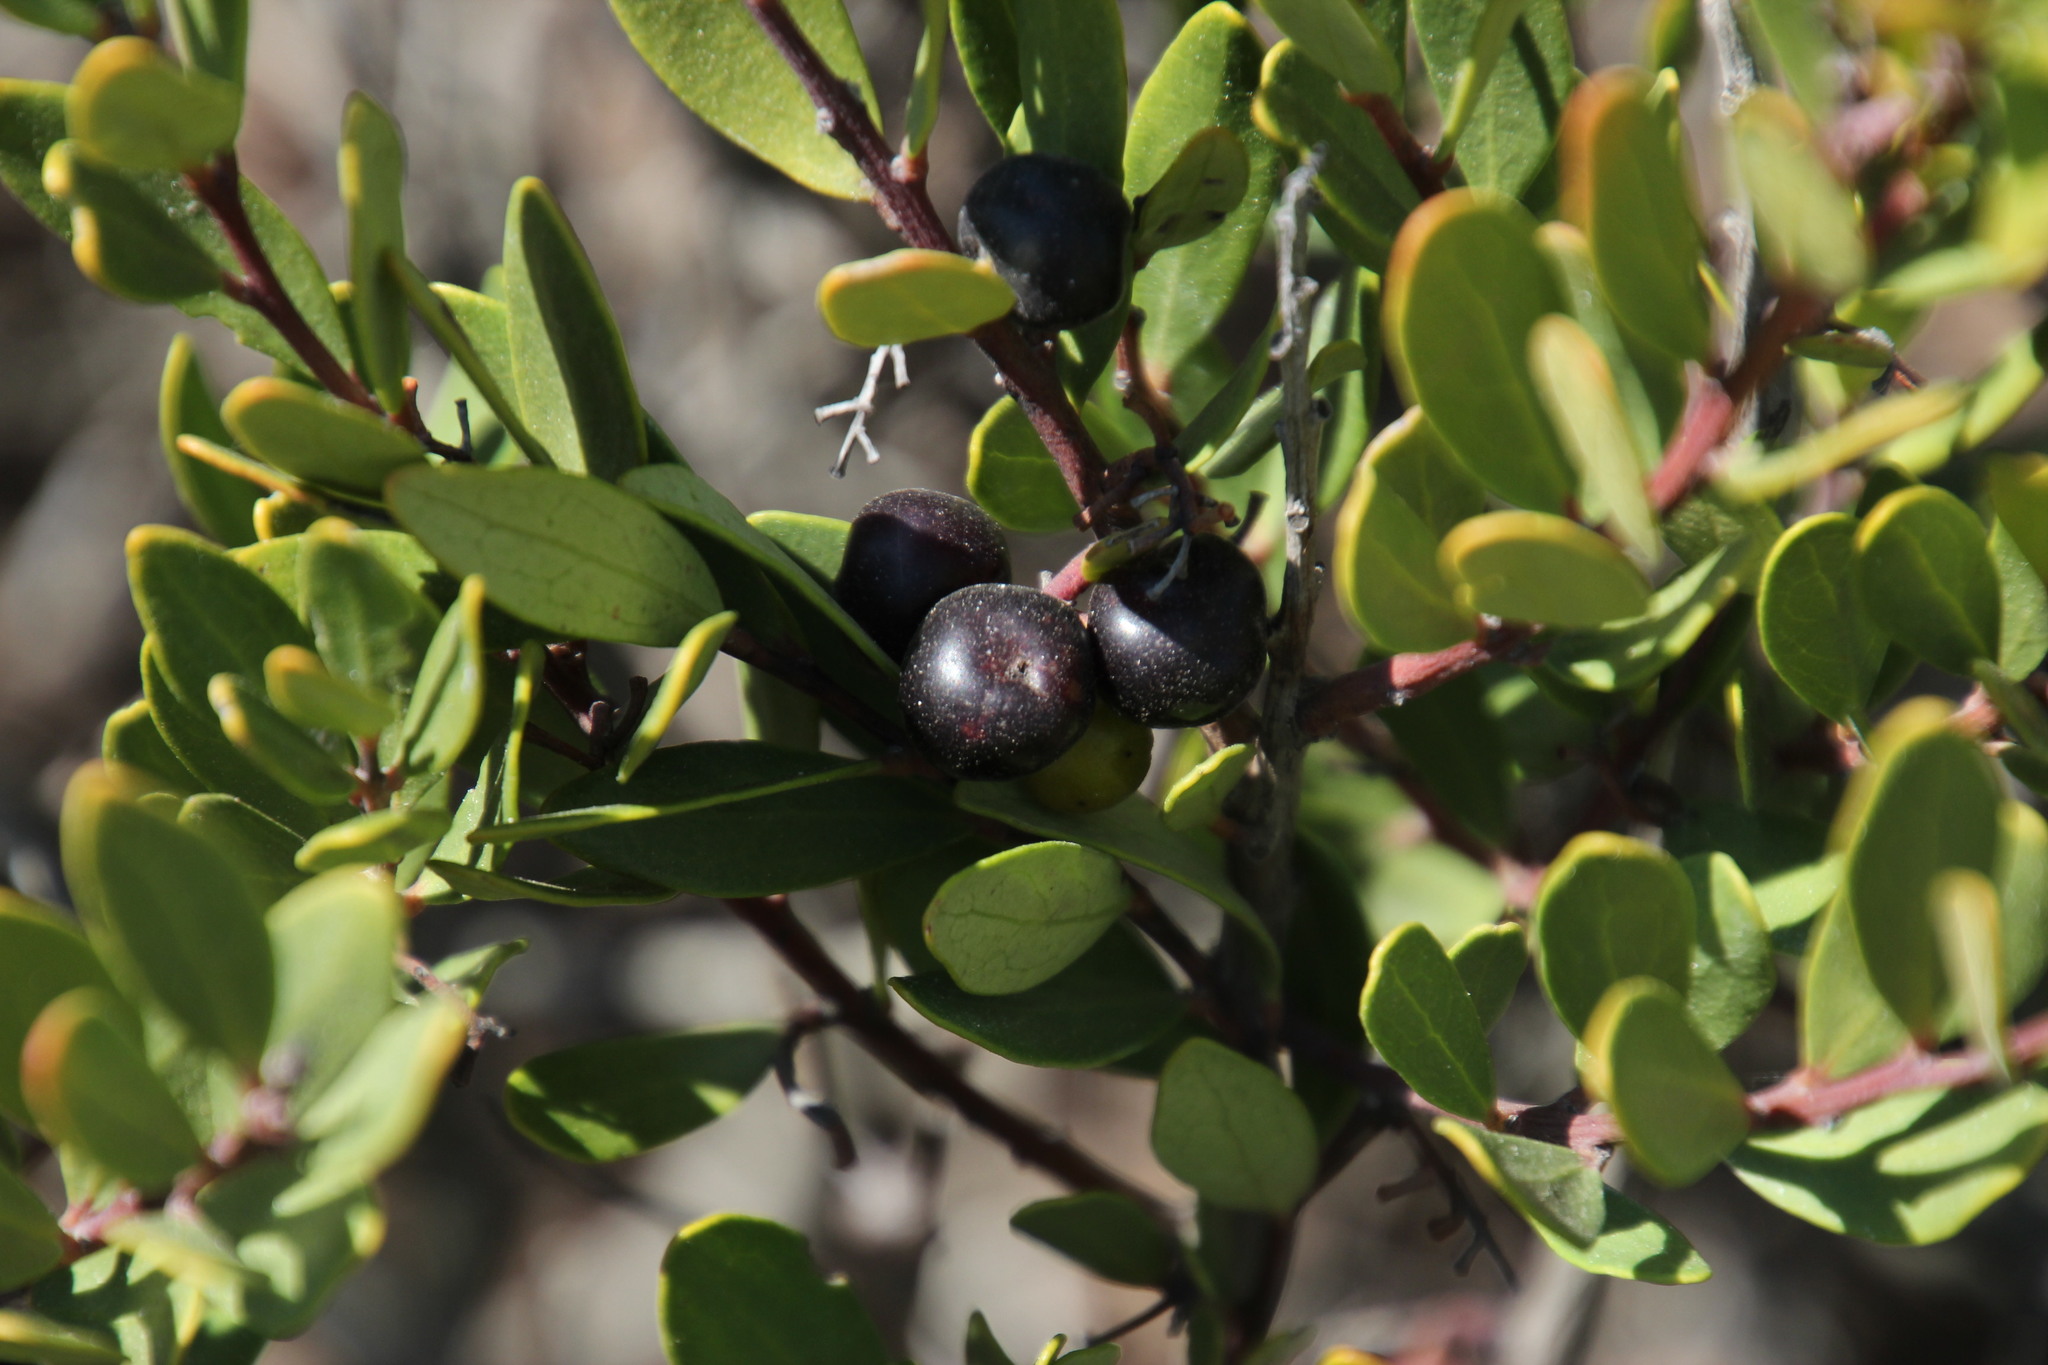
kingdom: Plantae
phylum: Tracheophyta
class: Magnoliopsida
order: Ericales
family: Ebenaceae
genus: Euclea
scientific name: Euclea racemosa
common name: Dune guarri
